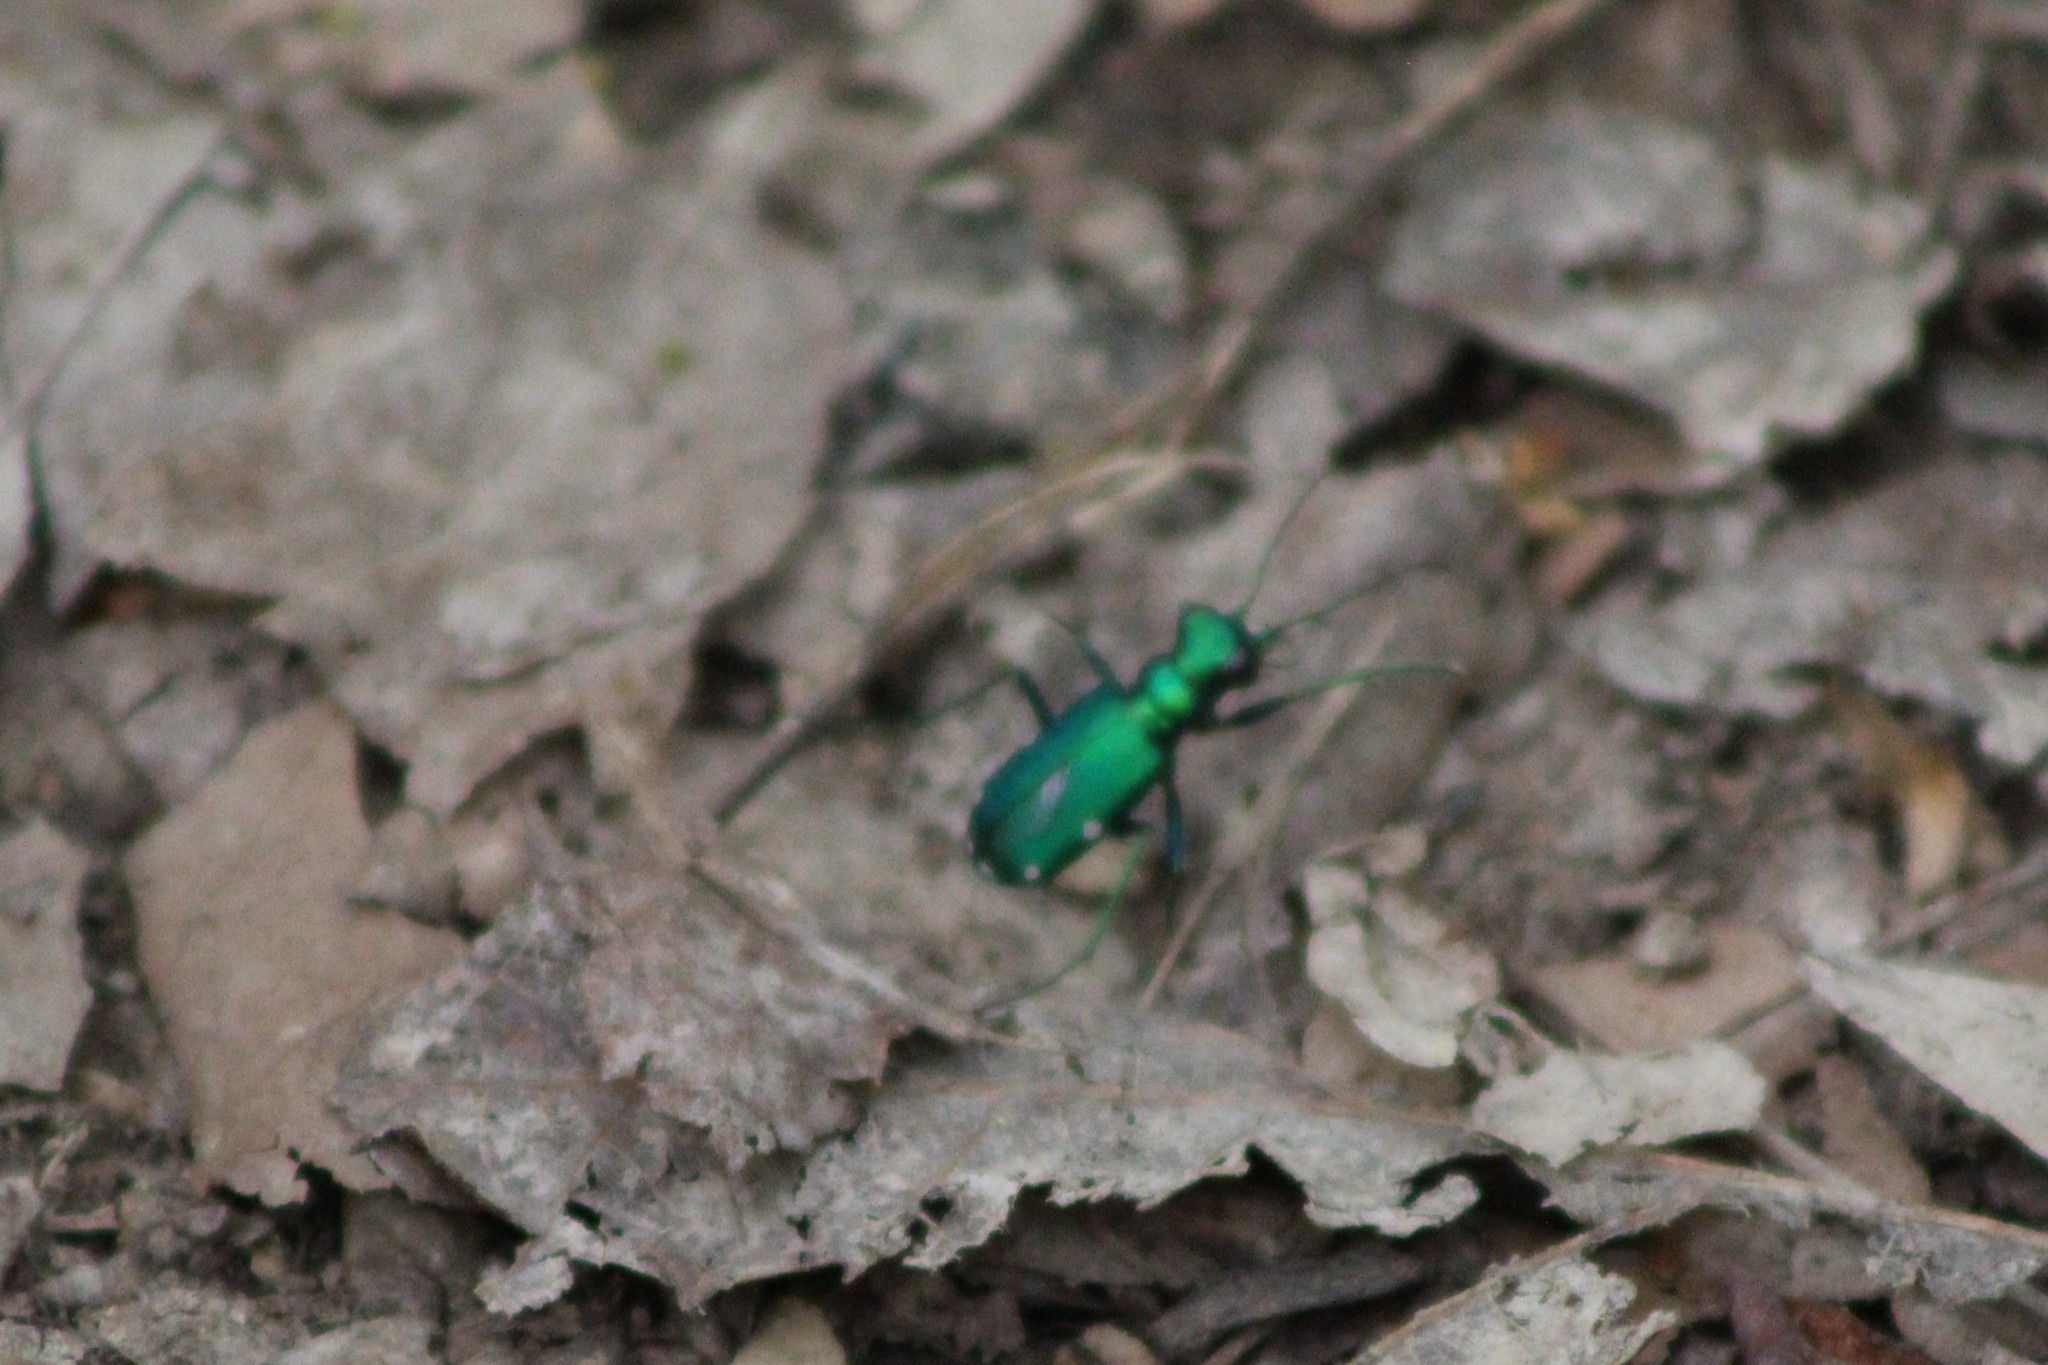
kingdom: Animalia
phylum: Arthropoda
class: Insecta
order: Coleoptera
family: Carabidae
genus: Cicindela
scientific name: Cicindela sexguttata
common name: Six-spotted tiger beetle
